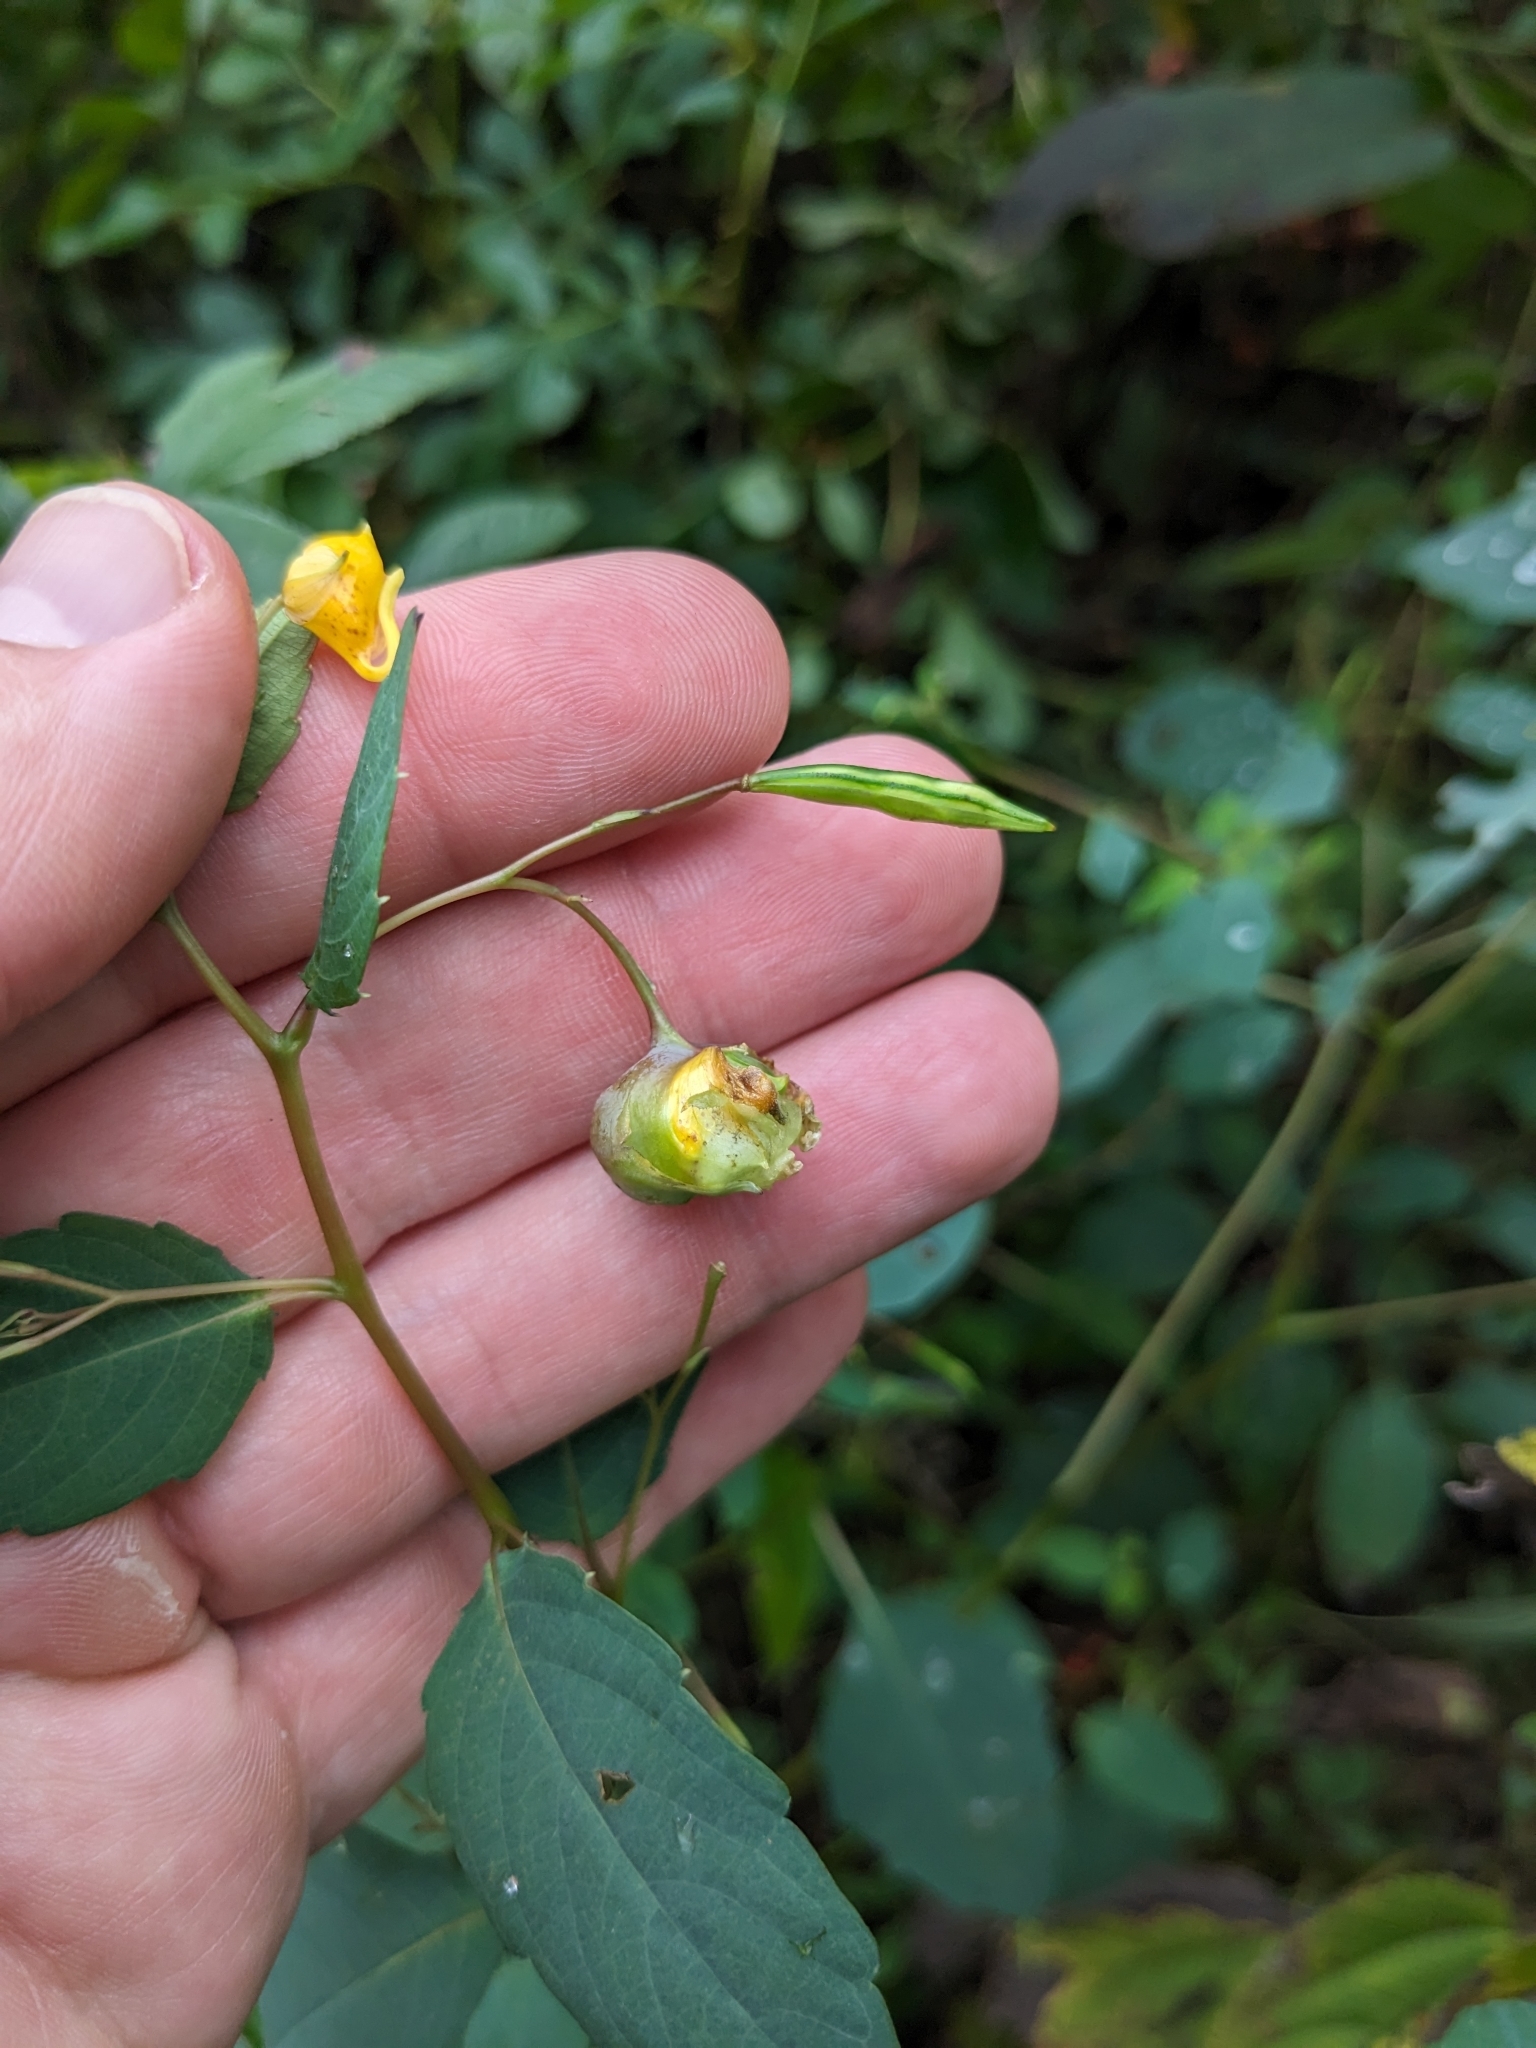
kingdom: Animalia
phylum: Arthropoda
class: Insecta
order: Diptera
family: Cecidomyiidae
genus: Schizomyia
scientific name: Schizomyia impatientis
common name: Jewelweed gall midge
